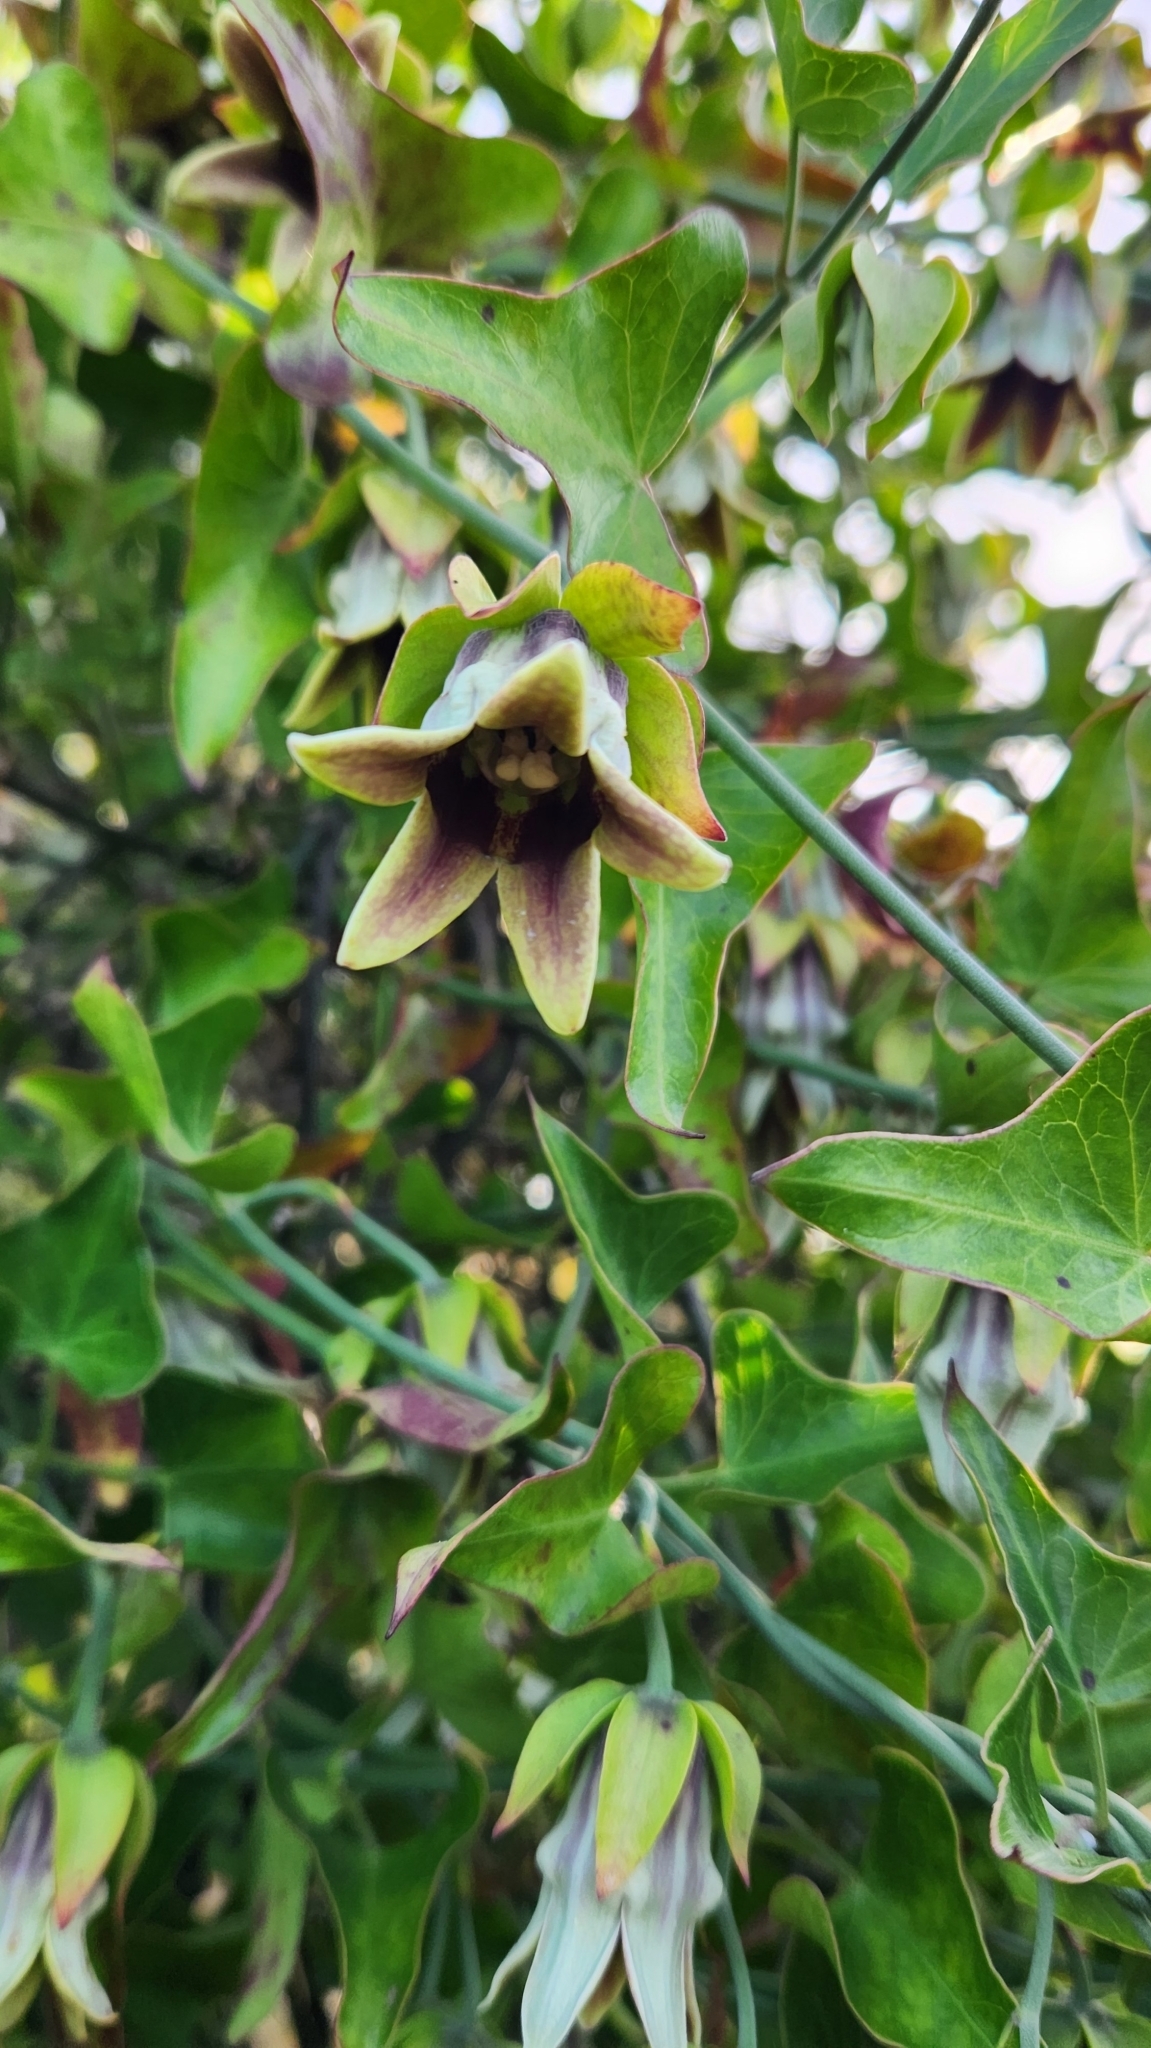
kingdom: Plantae
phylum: Tracheophyta
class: Magnoliopsida
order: Gentianales
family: Apocynaceae
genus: Araujia
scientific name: Araujia megapotamica
